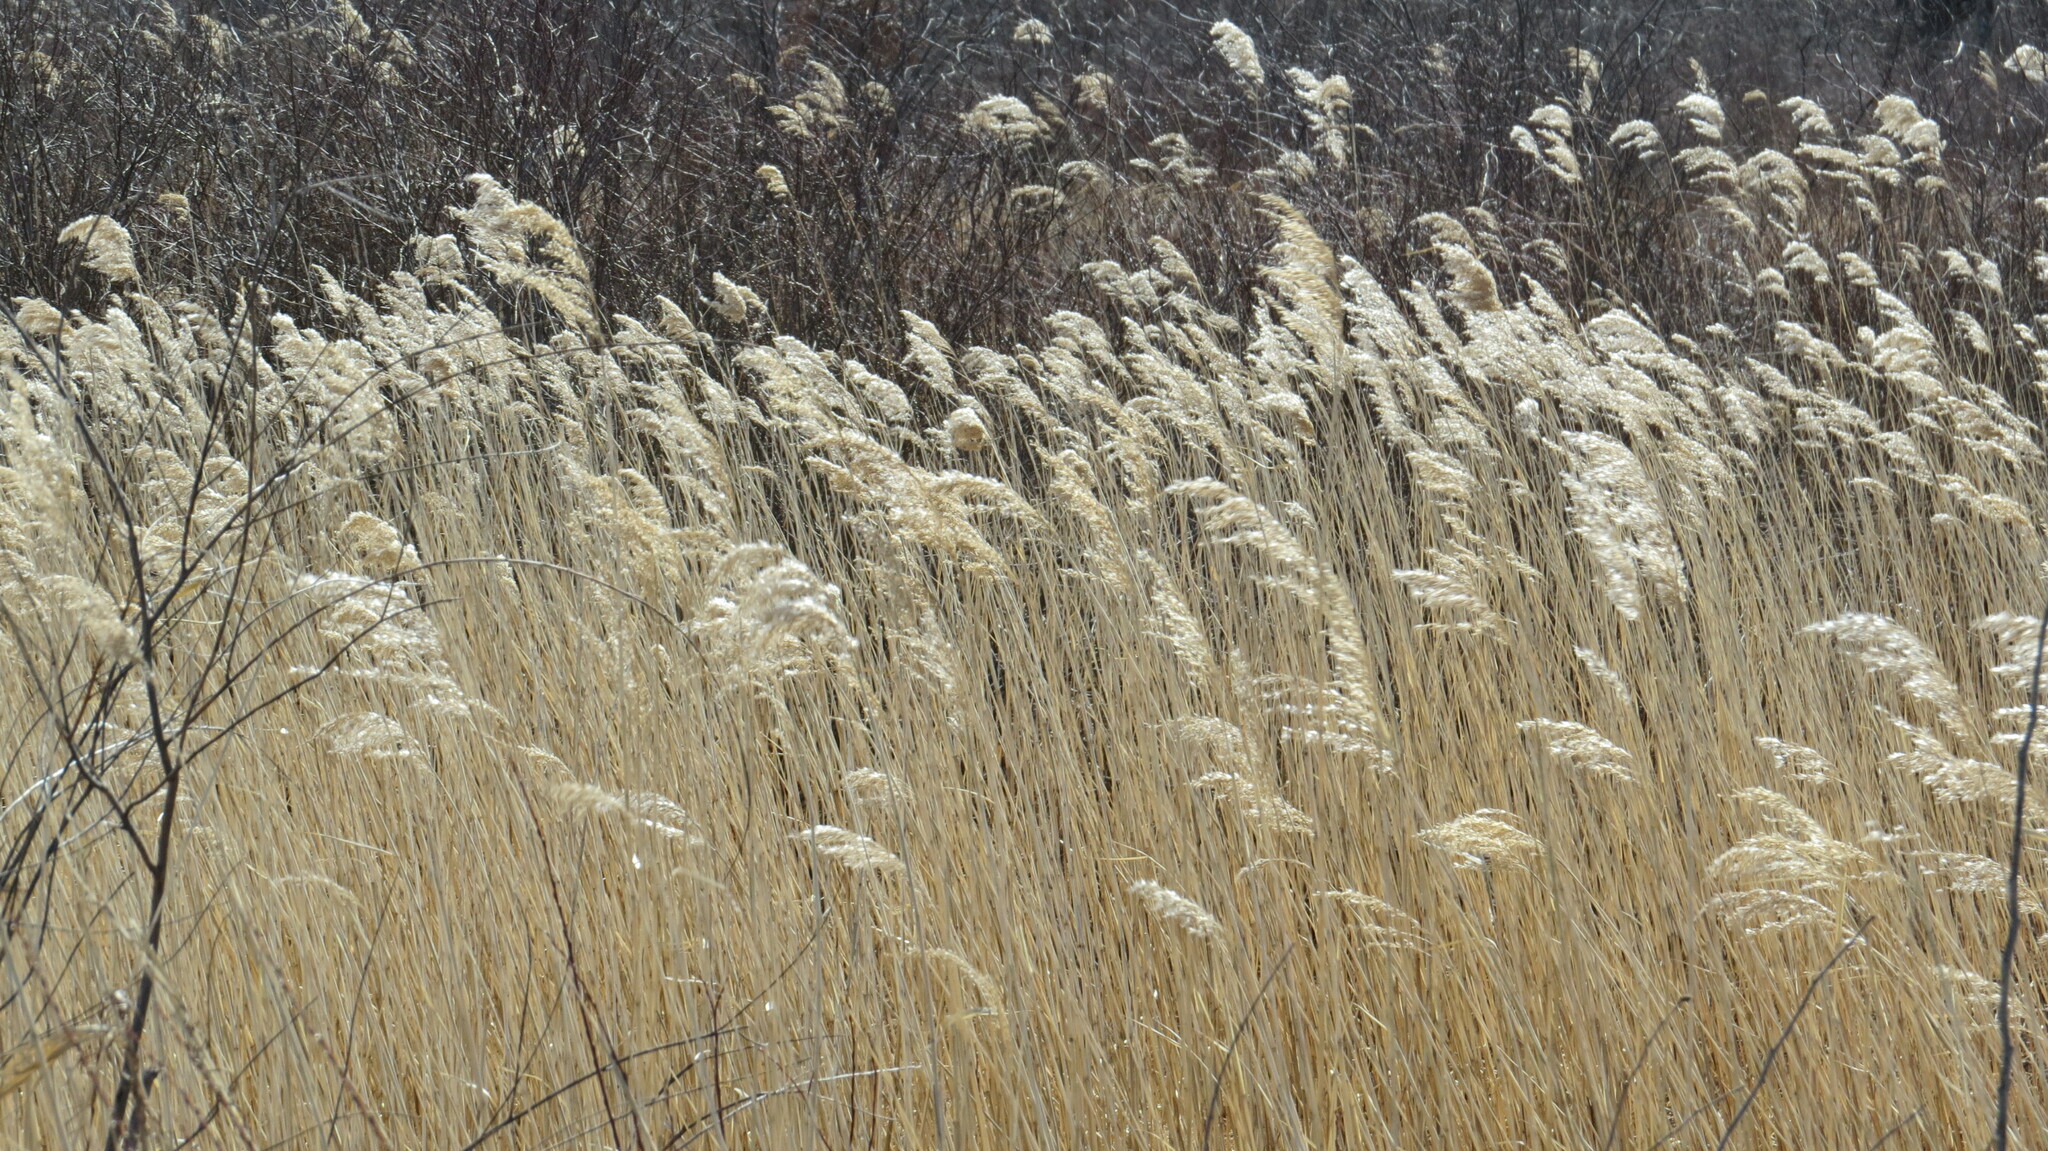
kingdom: Plantae
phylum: Tracheophyta
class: Liliopsida
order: Poales
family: Poaceae
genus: Phragmites
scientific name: Phragmites australis
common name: Common reed
